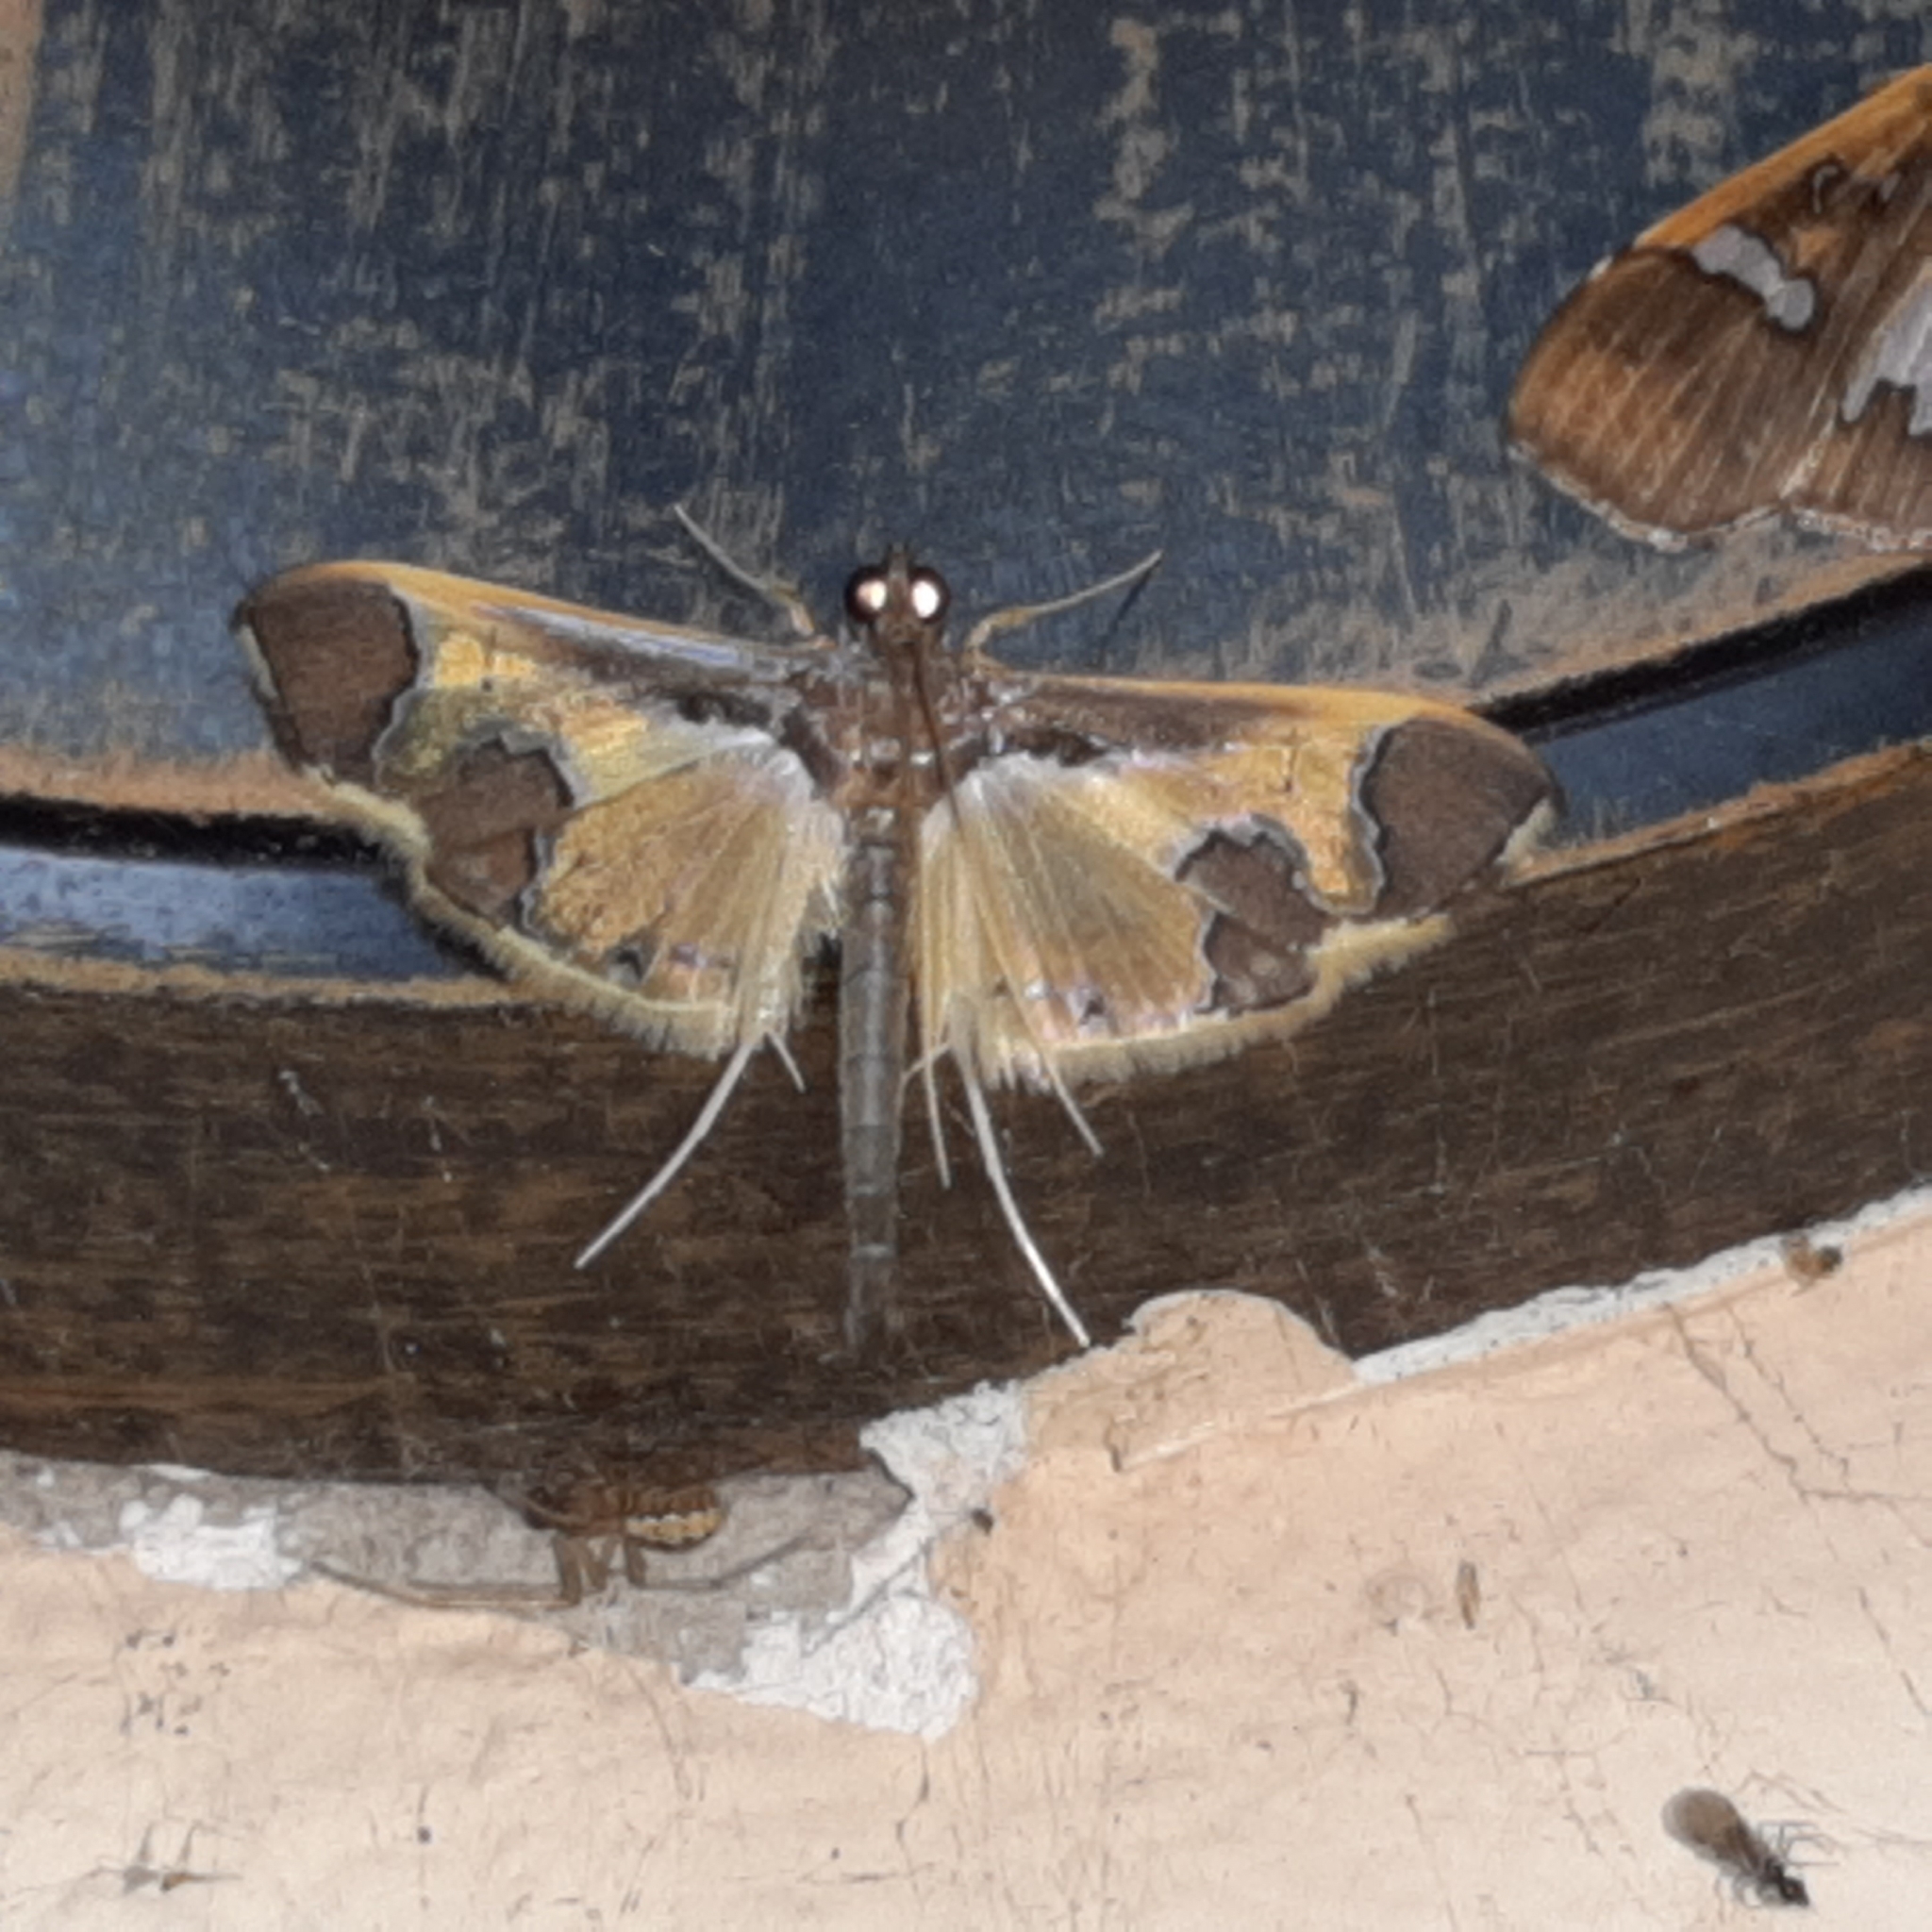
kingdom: Animalia
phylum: Arthropoda
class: Insecta
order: Lepidoptera
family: Crambidae
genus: Syllepis
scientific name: Syllepis marialis
